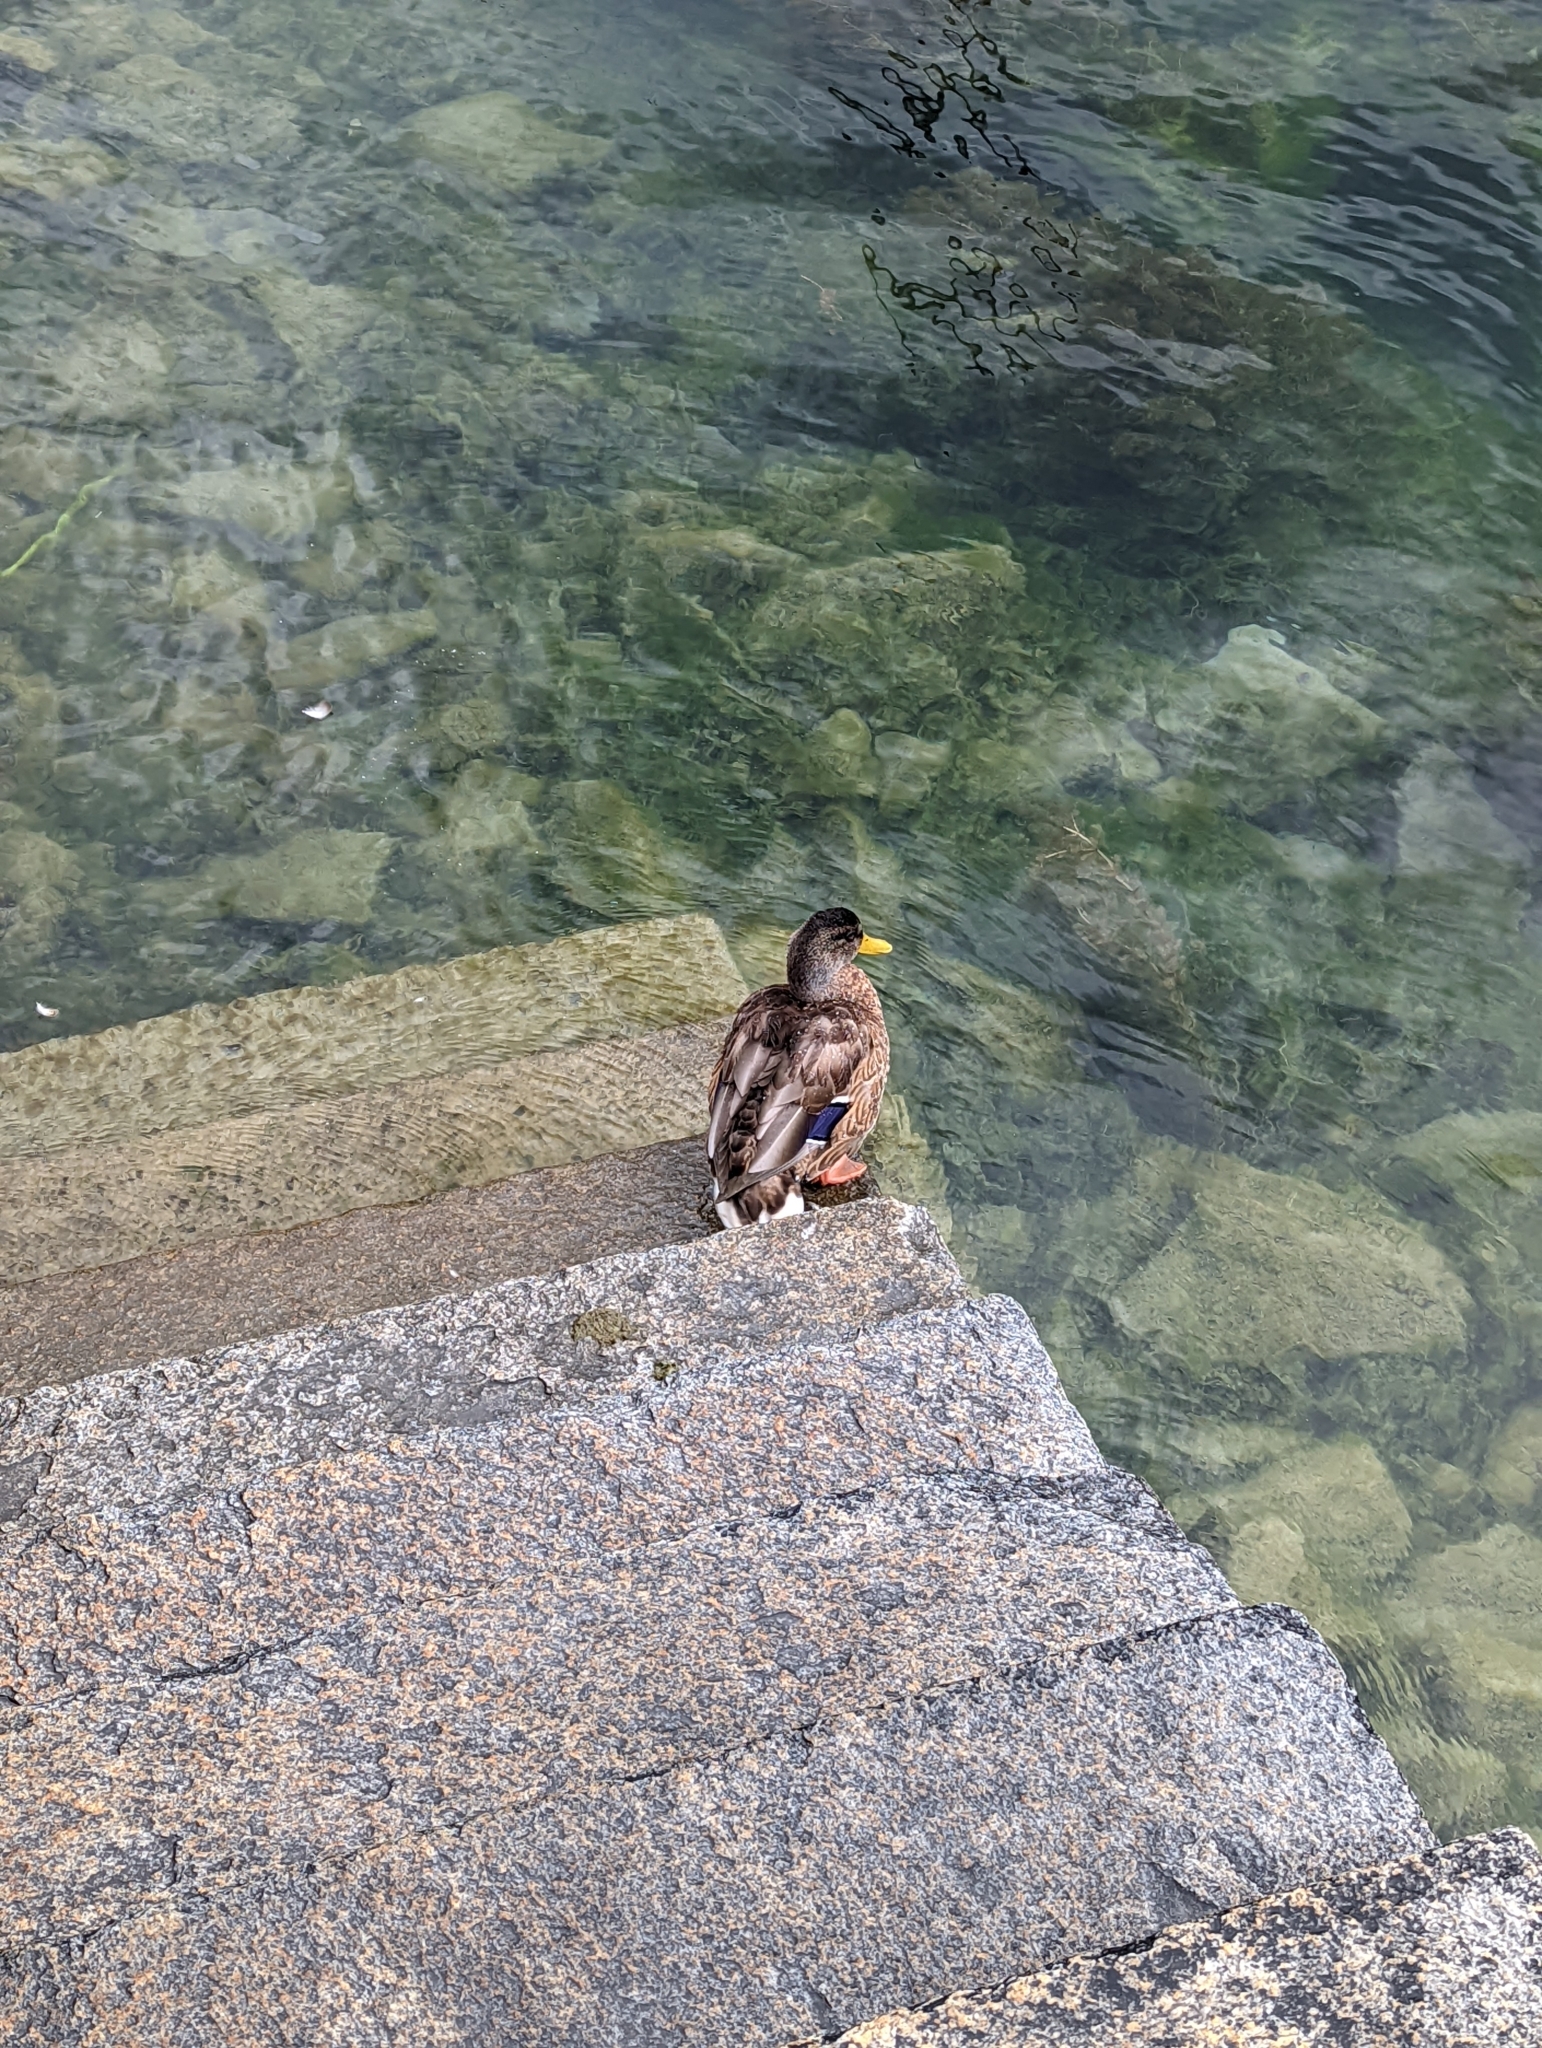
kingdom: Animalia
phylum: Chordata
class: Aves
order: Anseriformes
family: Anatidae
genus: Anas
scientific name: Anas platyrhynchos
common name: Mallard
